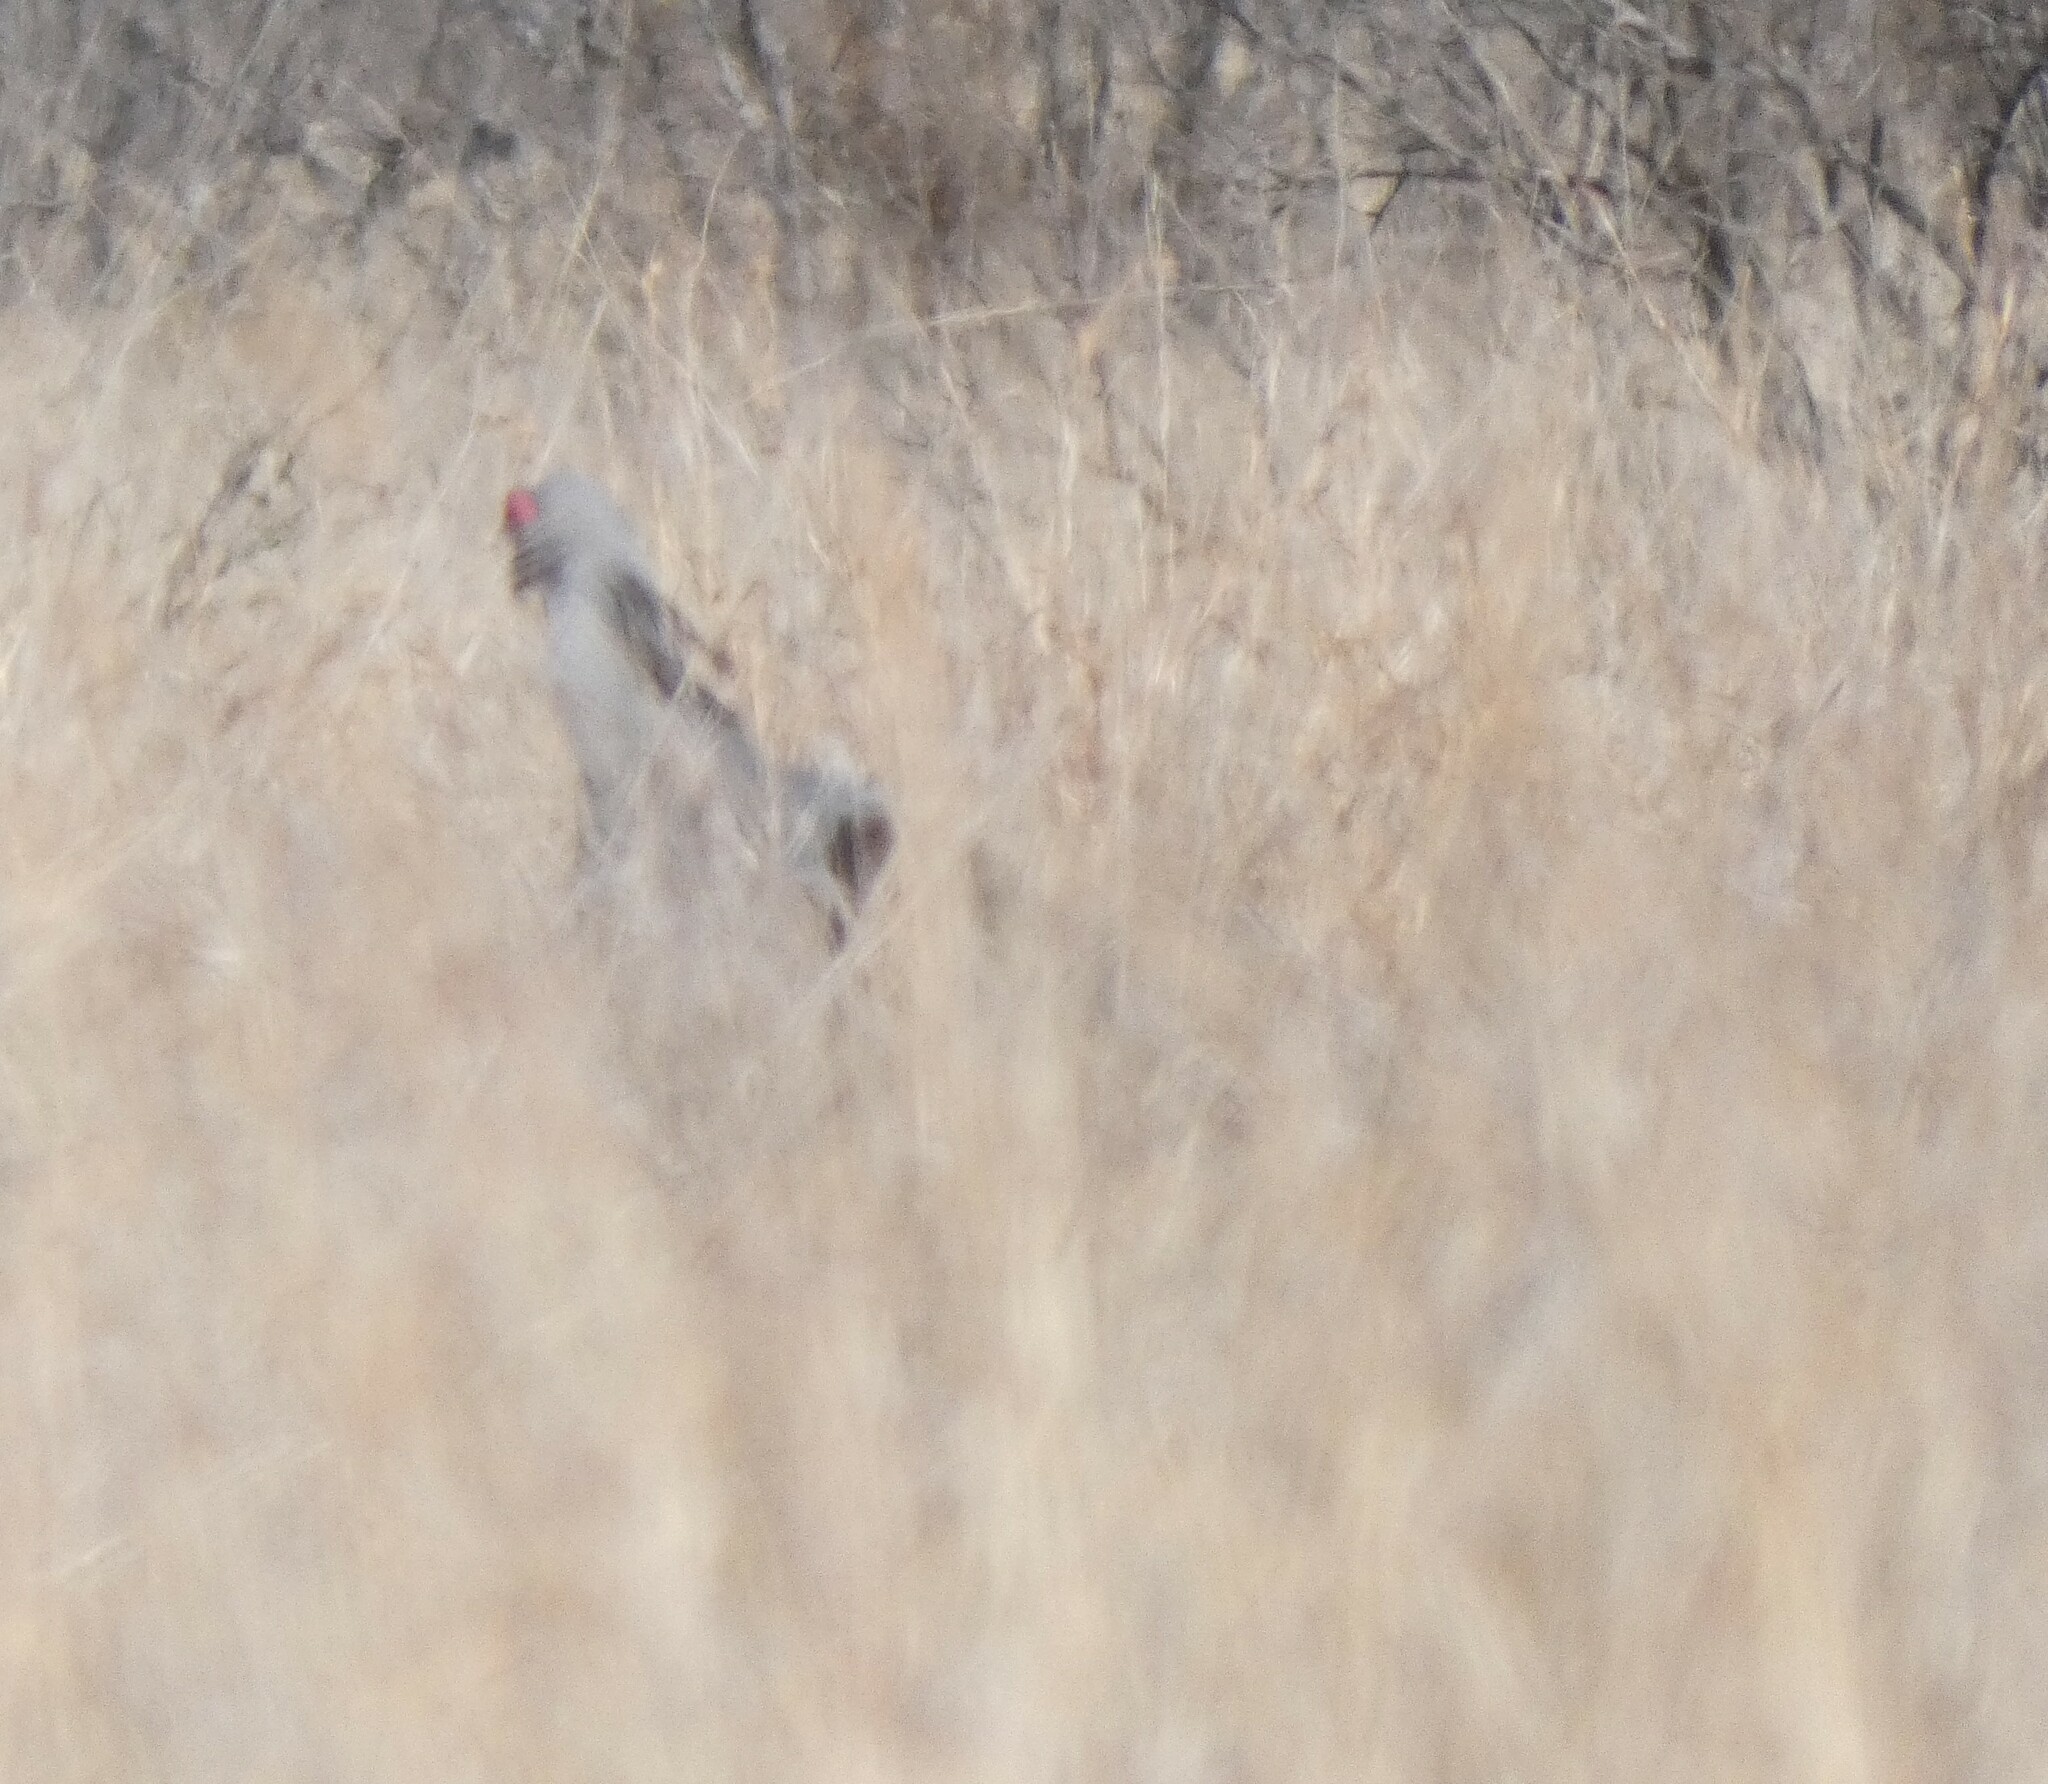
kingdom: Animalia
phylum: Chordata
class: Aves
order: Accipitriformes
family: Sagittariidae
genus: Sagittarius
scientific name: Sagittarius serpentarius
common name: Secretarybird
